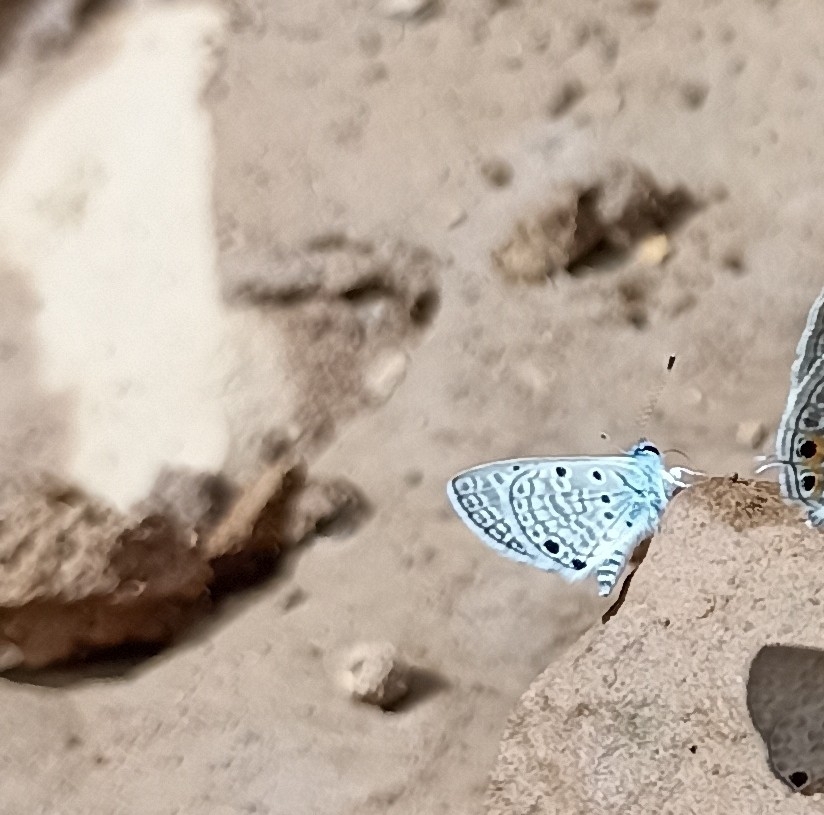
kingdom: Animalia
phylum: Arthropoda
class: Insecta
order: Lepidoptera
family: Lycaenidae
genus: Azanus
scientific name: Azanus ubaldus
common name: Desert babul blue
